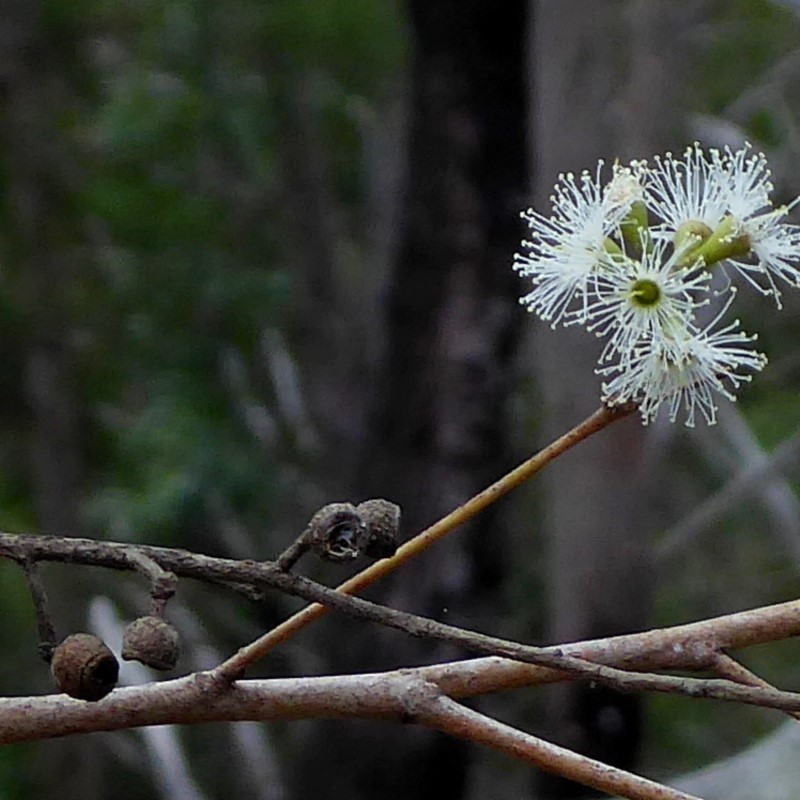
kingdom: Plantae
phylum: Tracheophyta
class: Magnoliopsida
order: Myrtales
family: Myrtaceae
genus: Eucalyptus
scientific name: Eucalyptus eugenioides
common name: Narrow-leaved-stringybark
